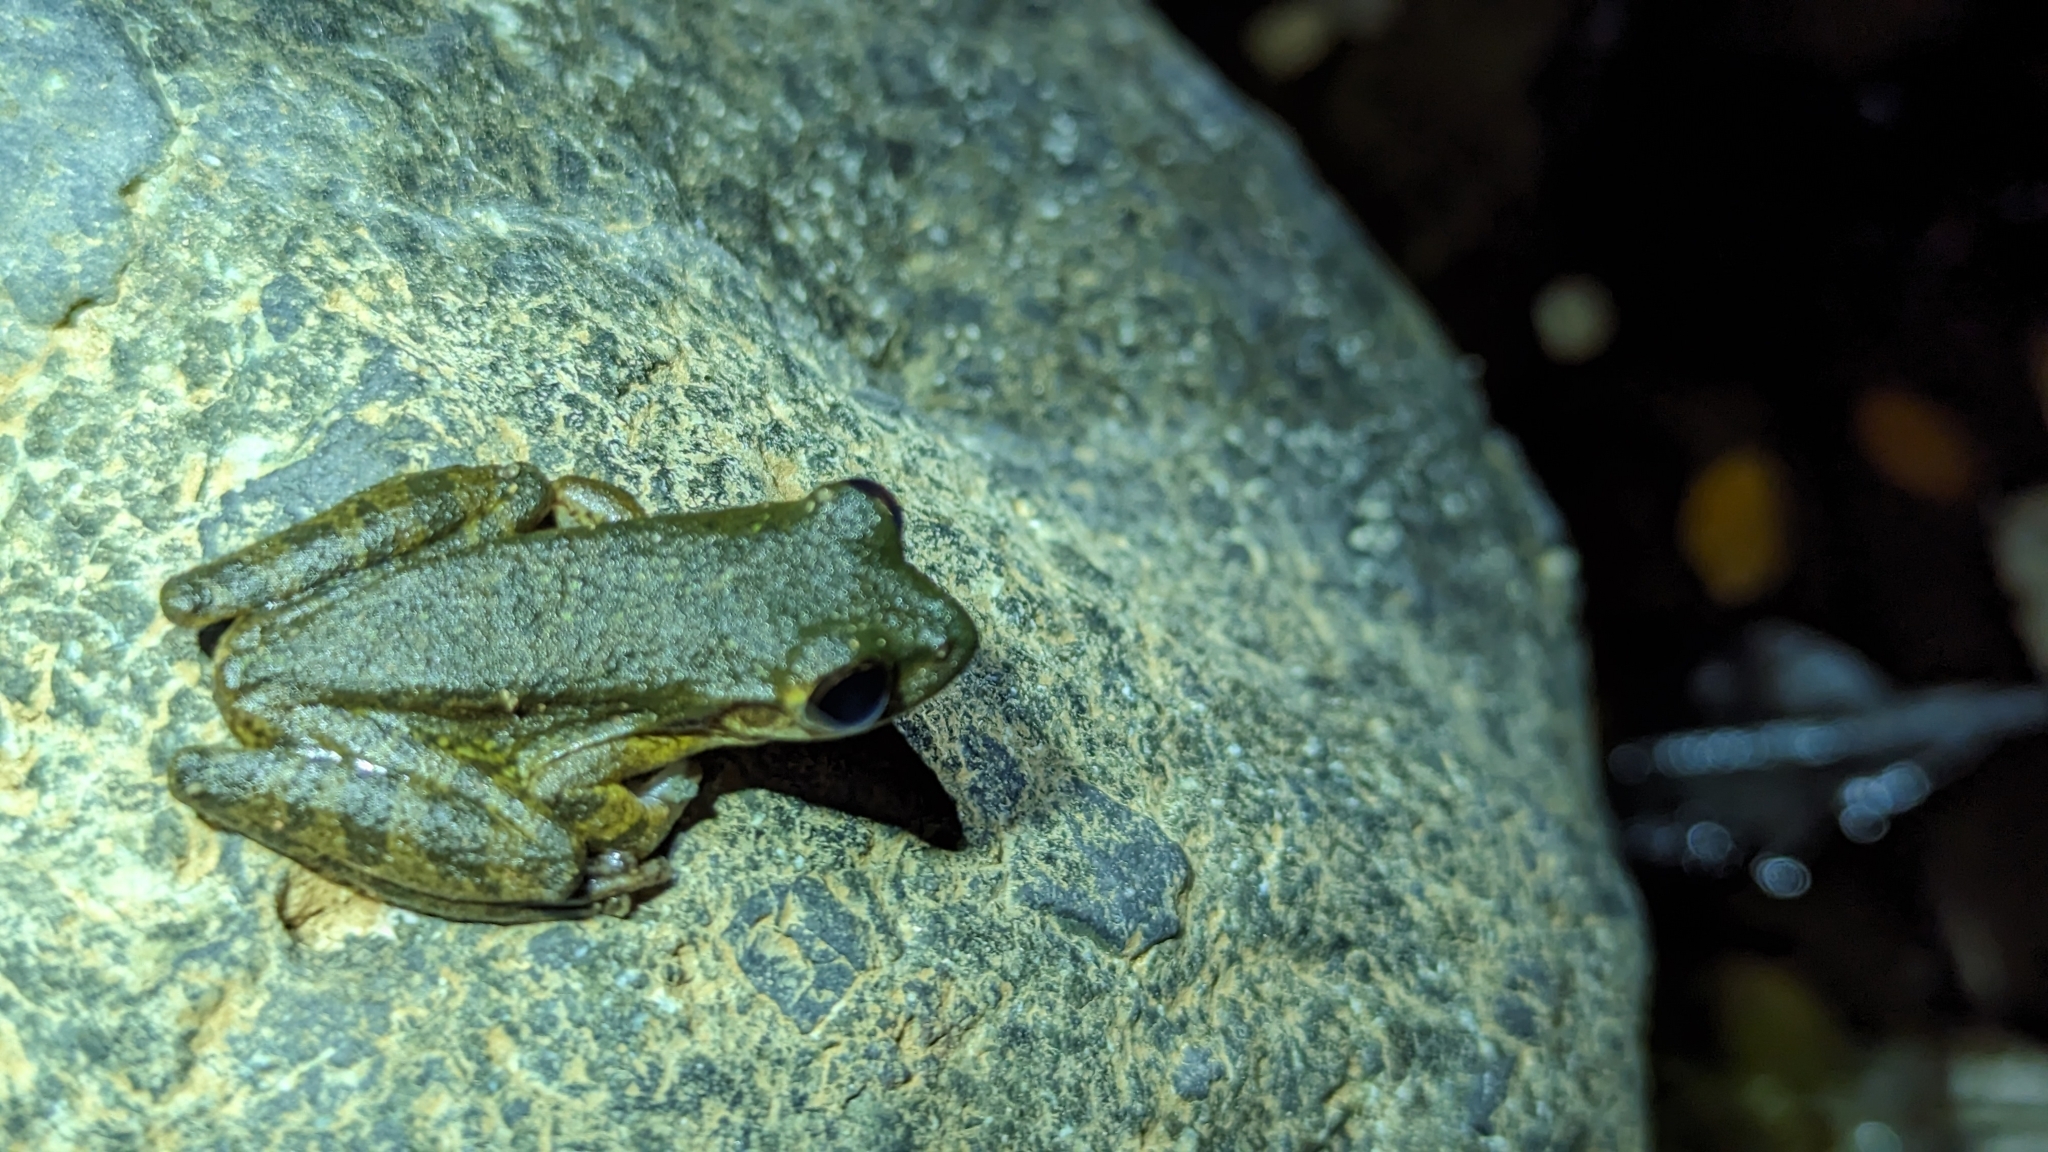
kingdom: Animalia
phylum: Chordata
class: Amphibia
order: Anura
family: Hylidae
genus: Smilisca
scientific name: Smilisca sordida
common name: Veragua cross-banded treefrog
